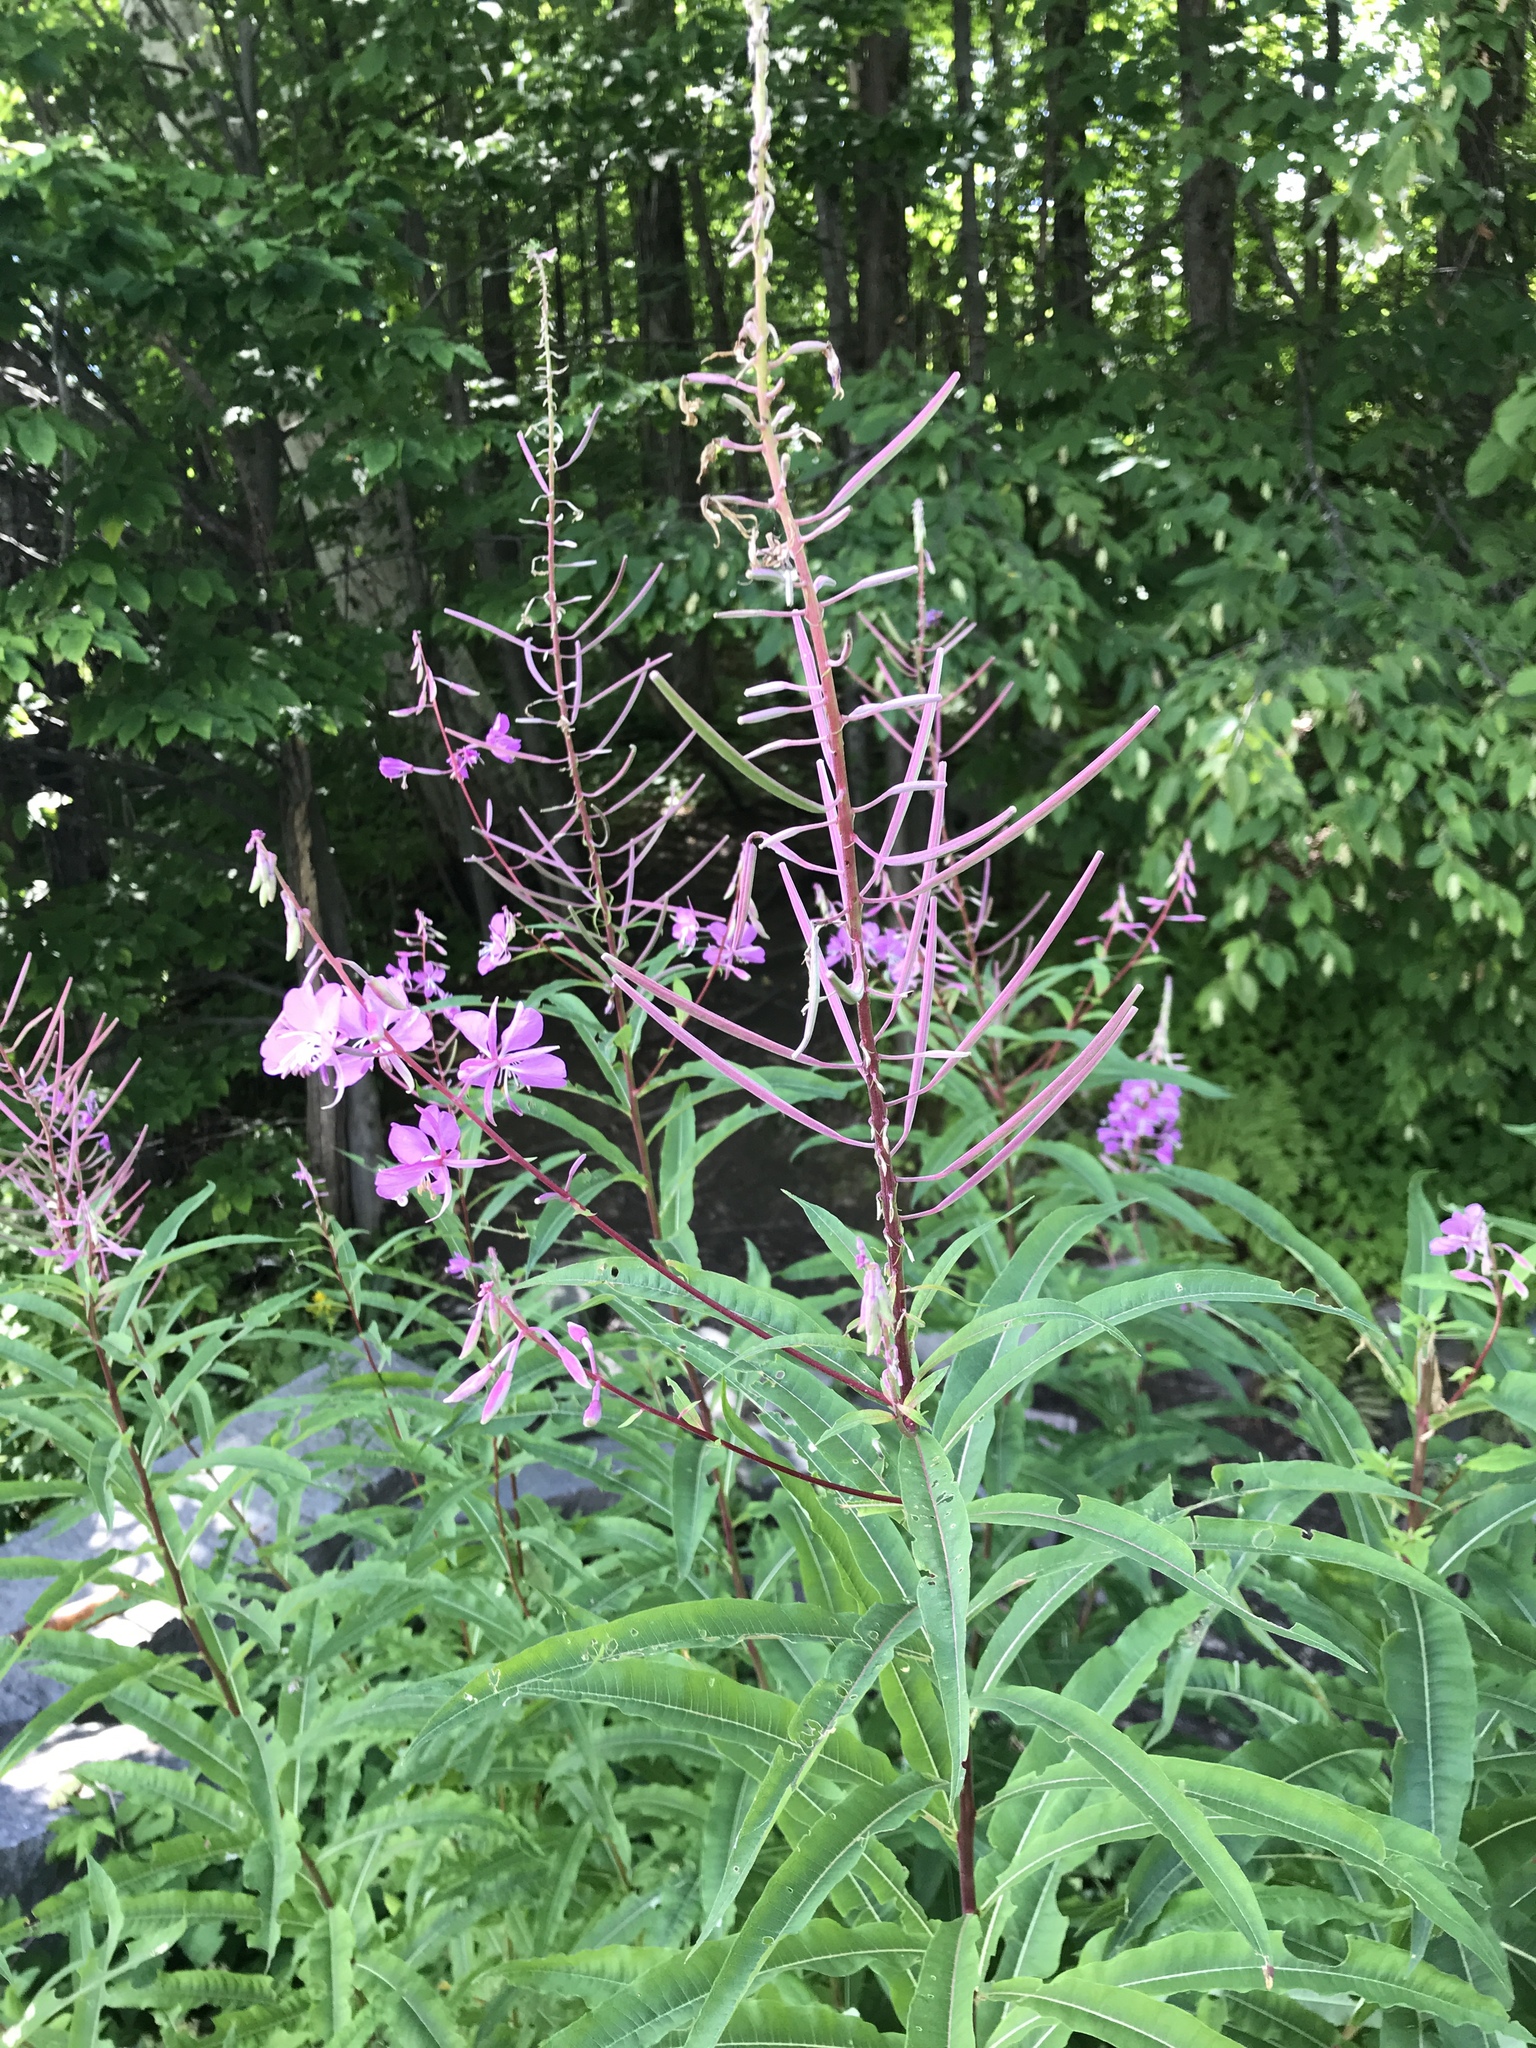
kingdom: Plantae
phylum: Tracheophyta
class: Magnoliopsida
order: Myrtales
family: Onagraceae
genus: Chamaenerion
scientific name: Chamaenerion angustifolium
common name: Fireweed
